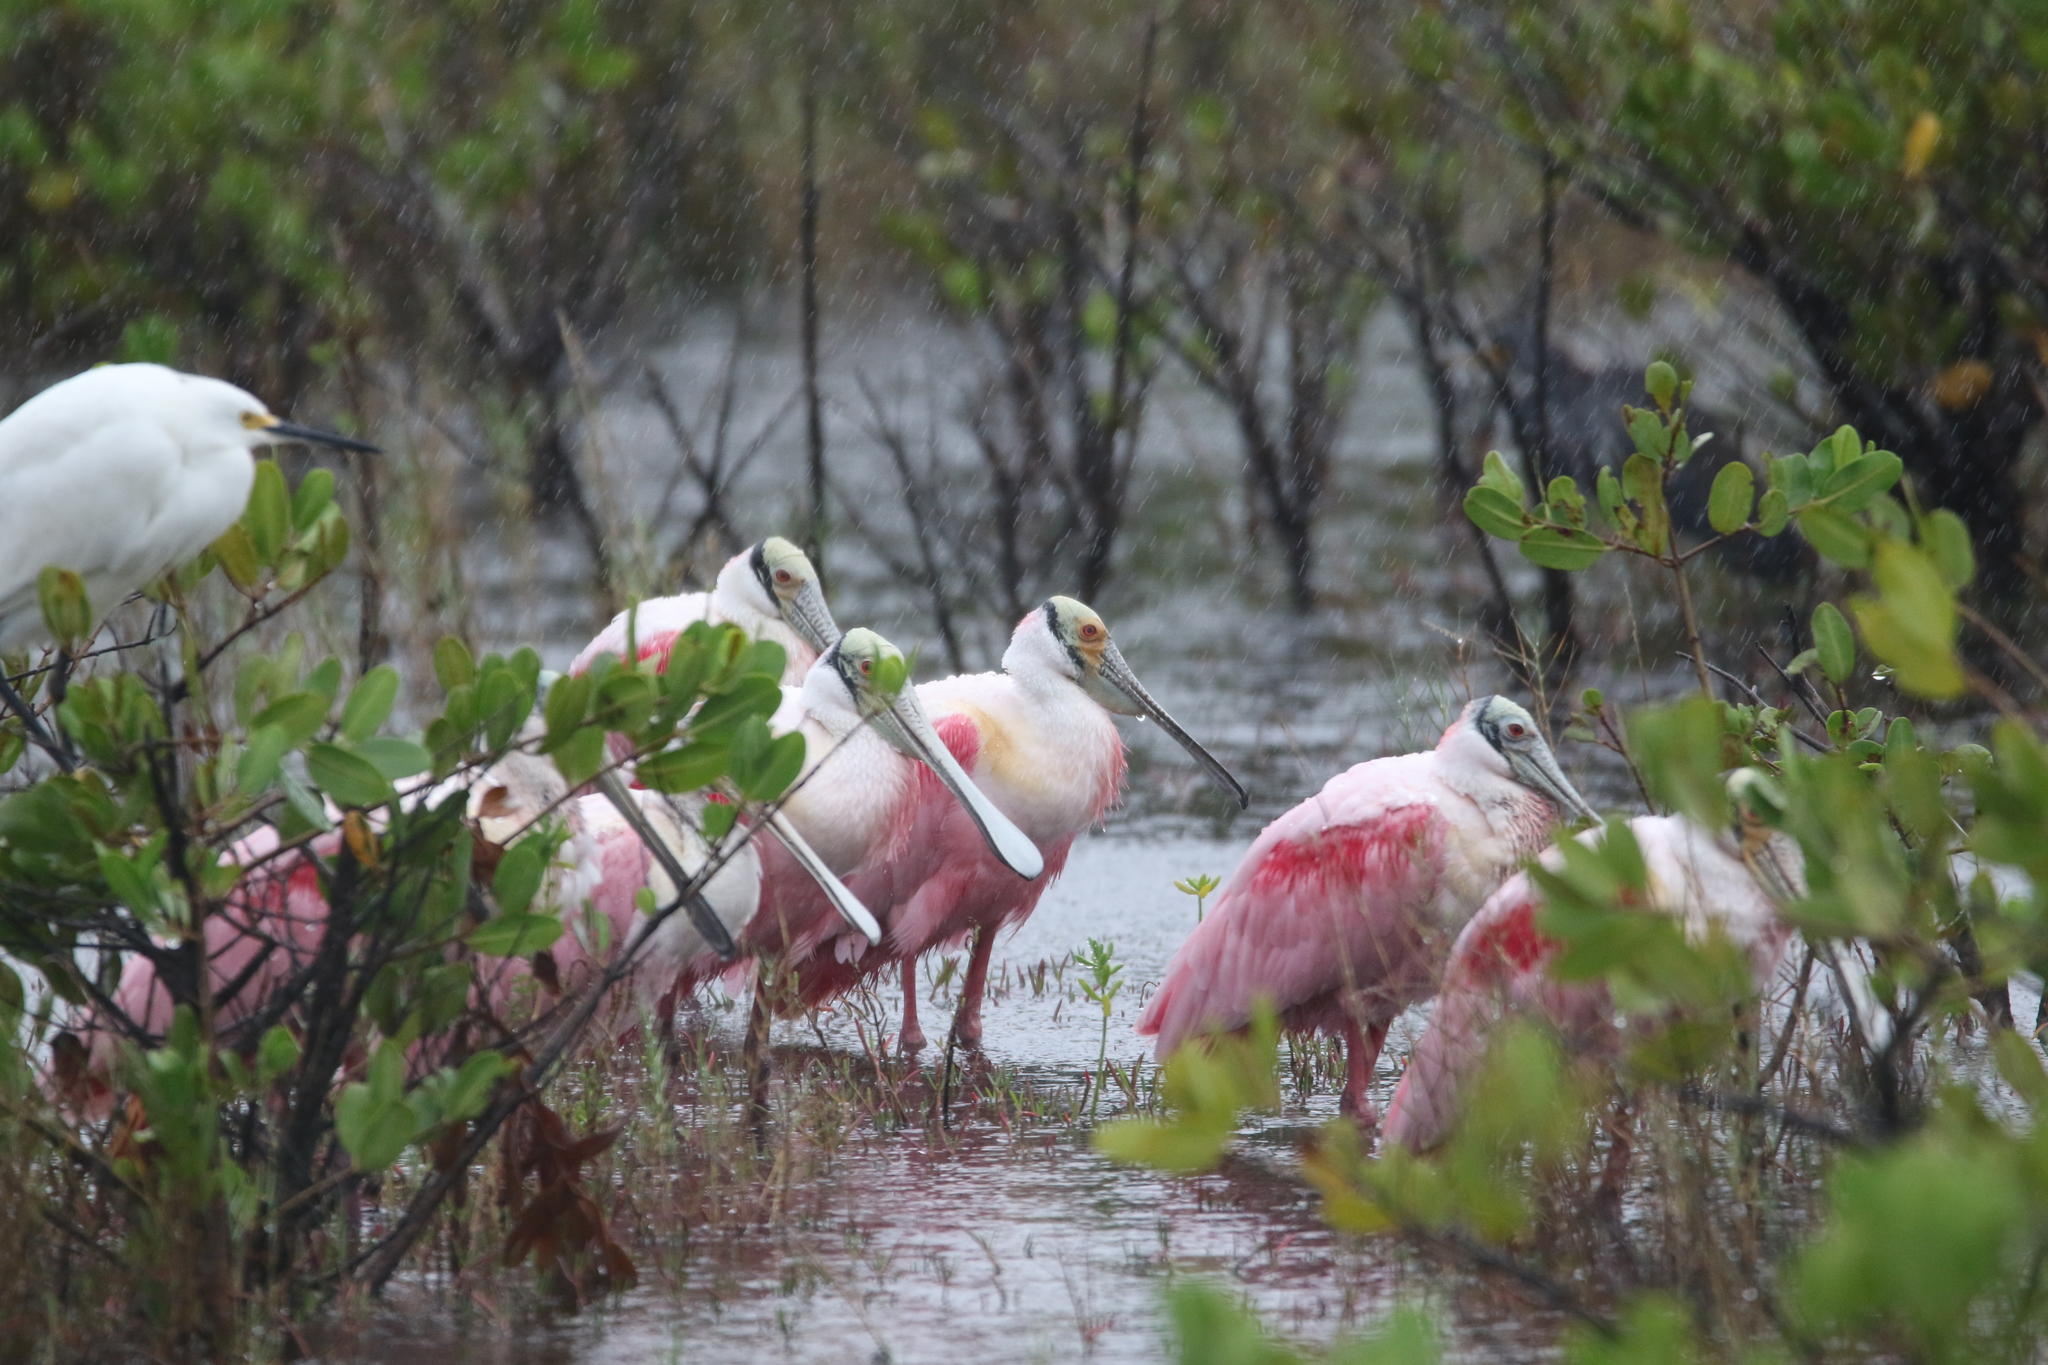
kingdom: Animalia
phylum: Chordata
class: Aves
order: Pelecaniformes
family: Threskiornithidae
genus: Platalea
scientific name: Platalea ajaja
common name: Roseate spoonbill
